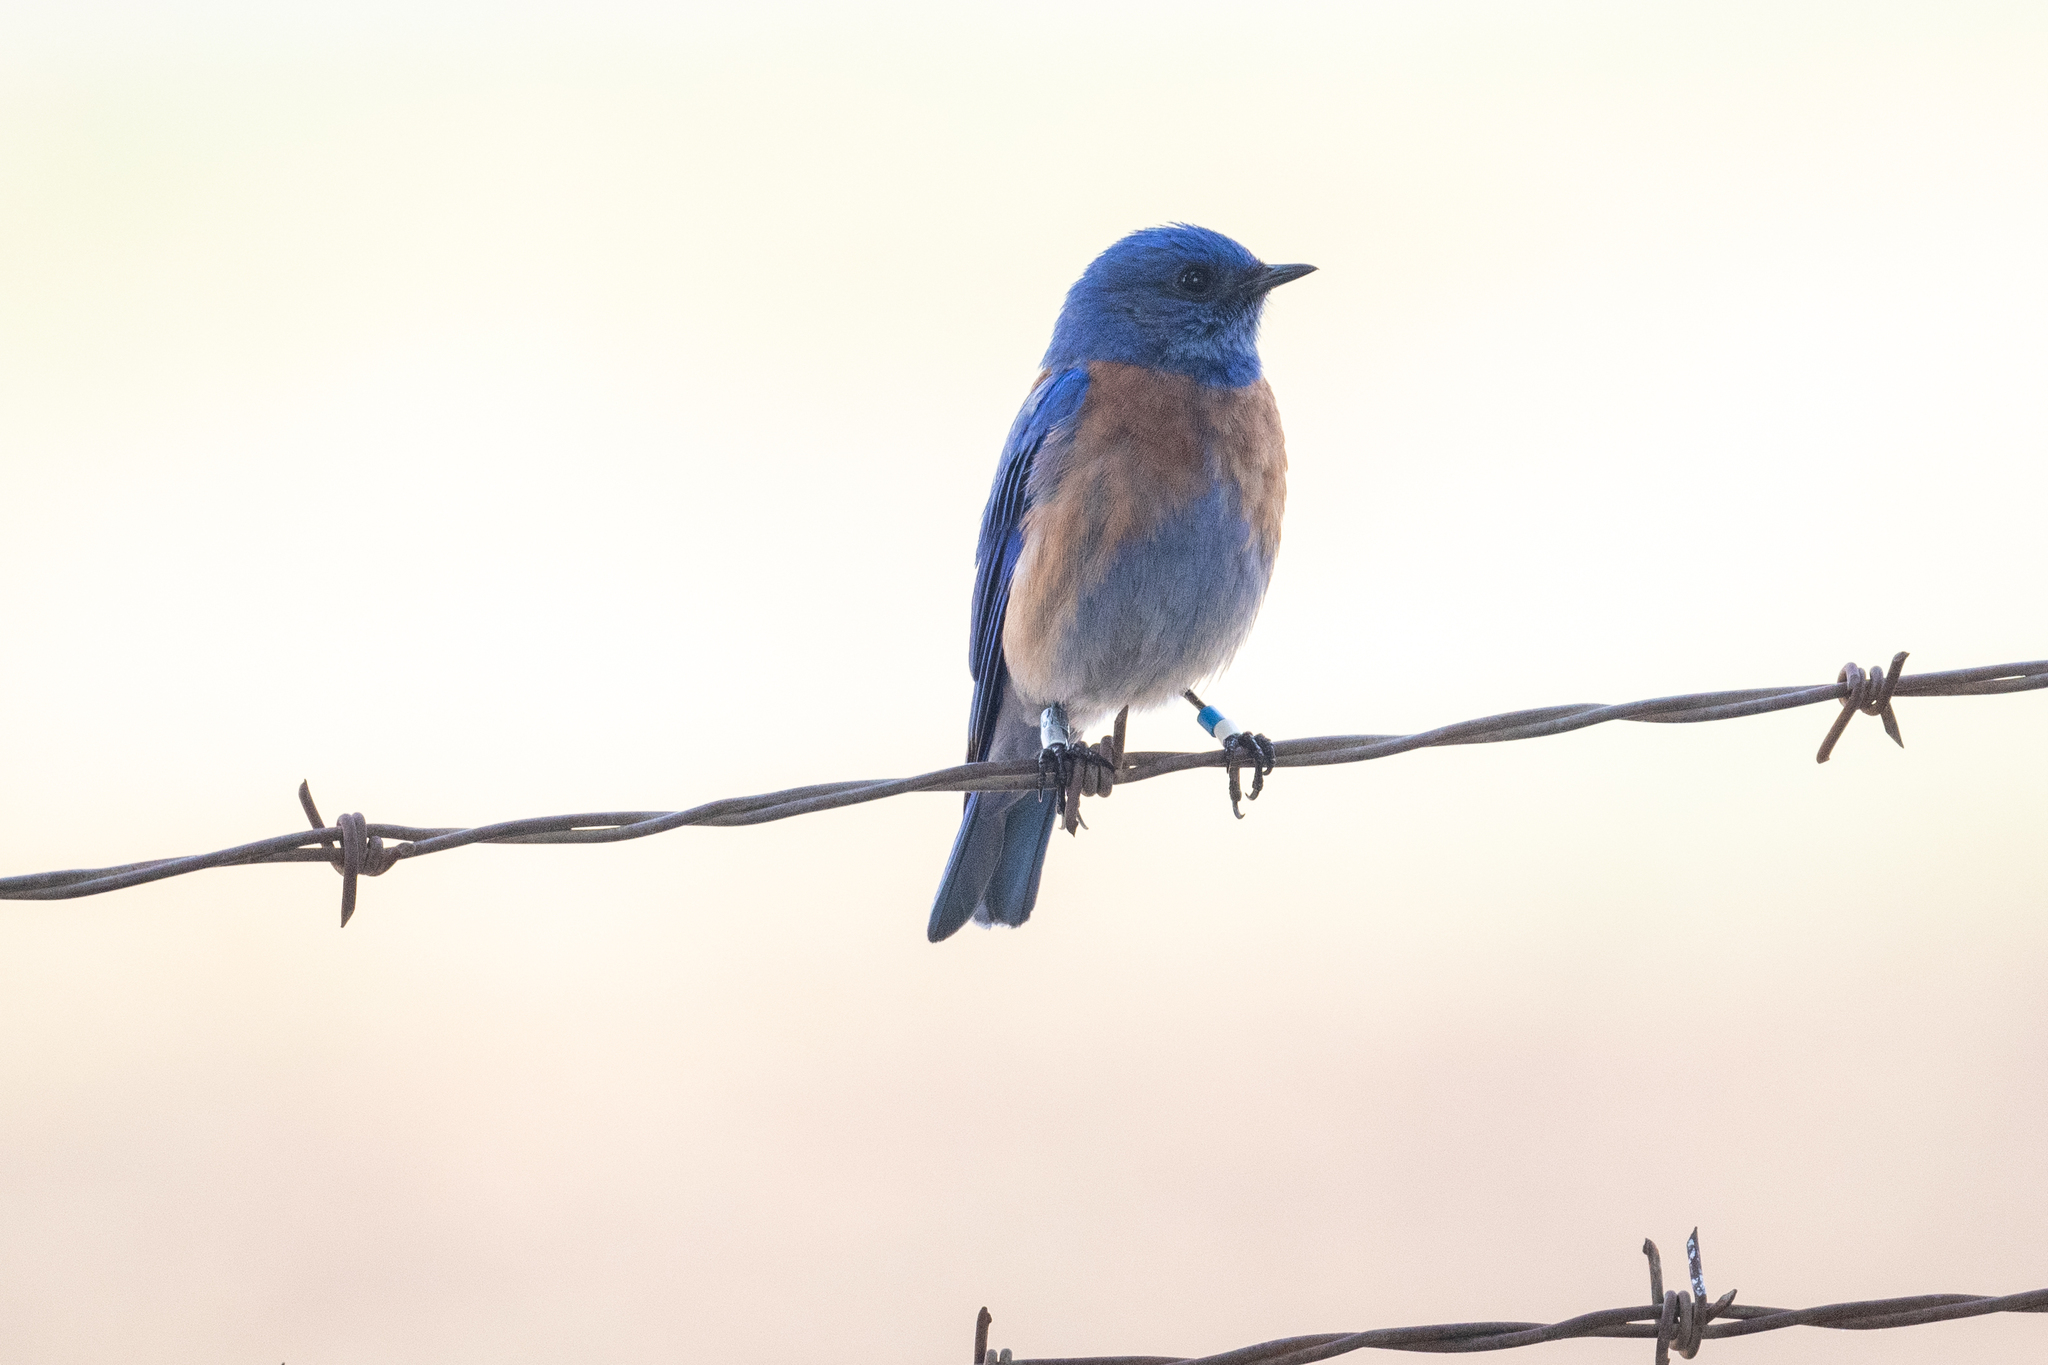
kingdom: Animalia
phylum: Chordata
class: Aves
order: Passeriformes
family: Turdidae
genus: Sialia
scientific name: Sialia mexicana
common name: Western bluebird
